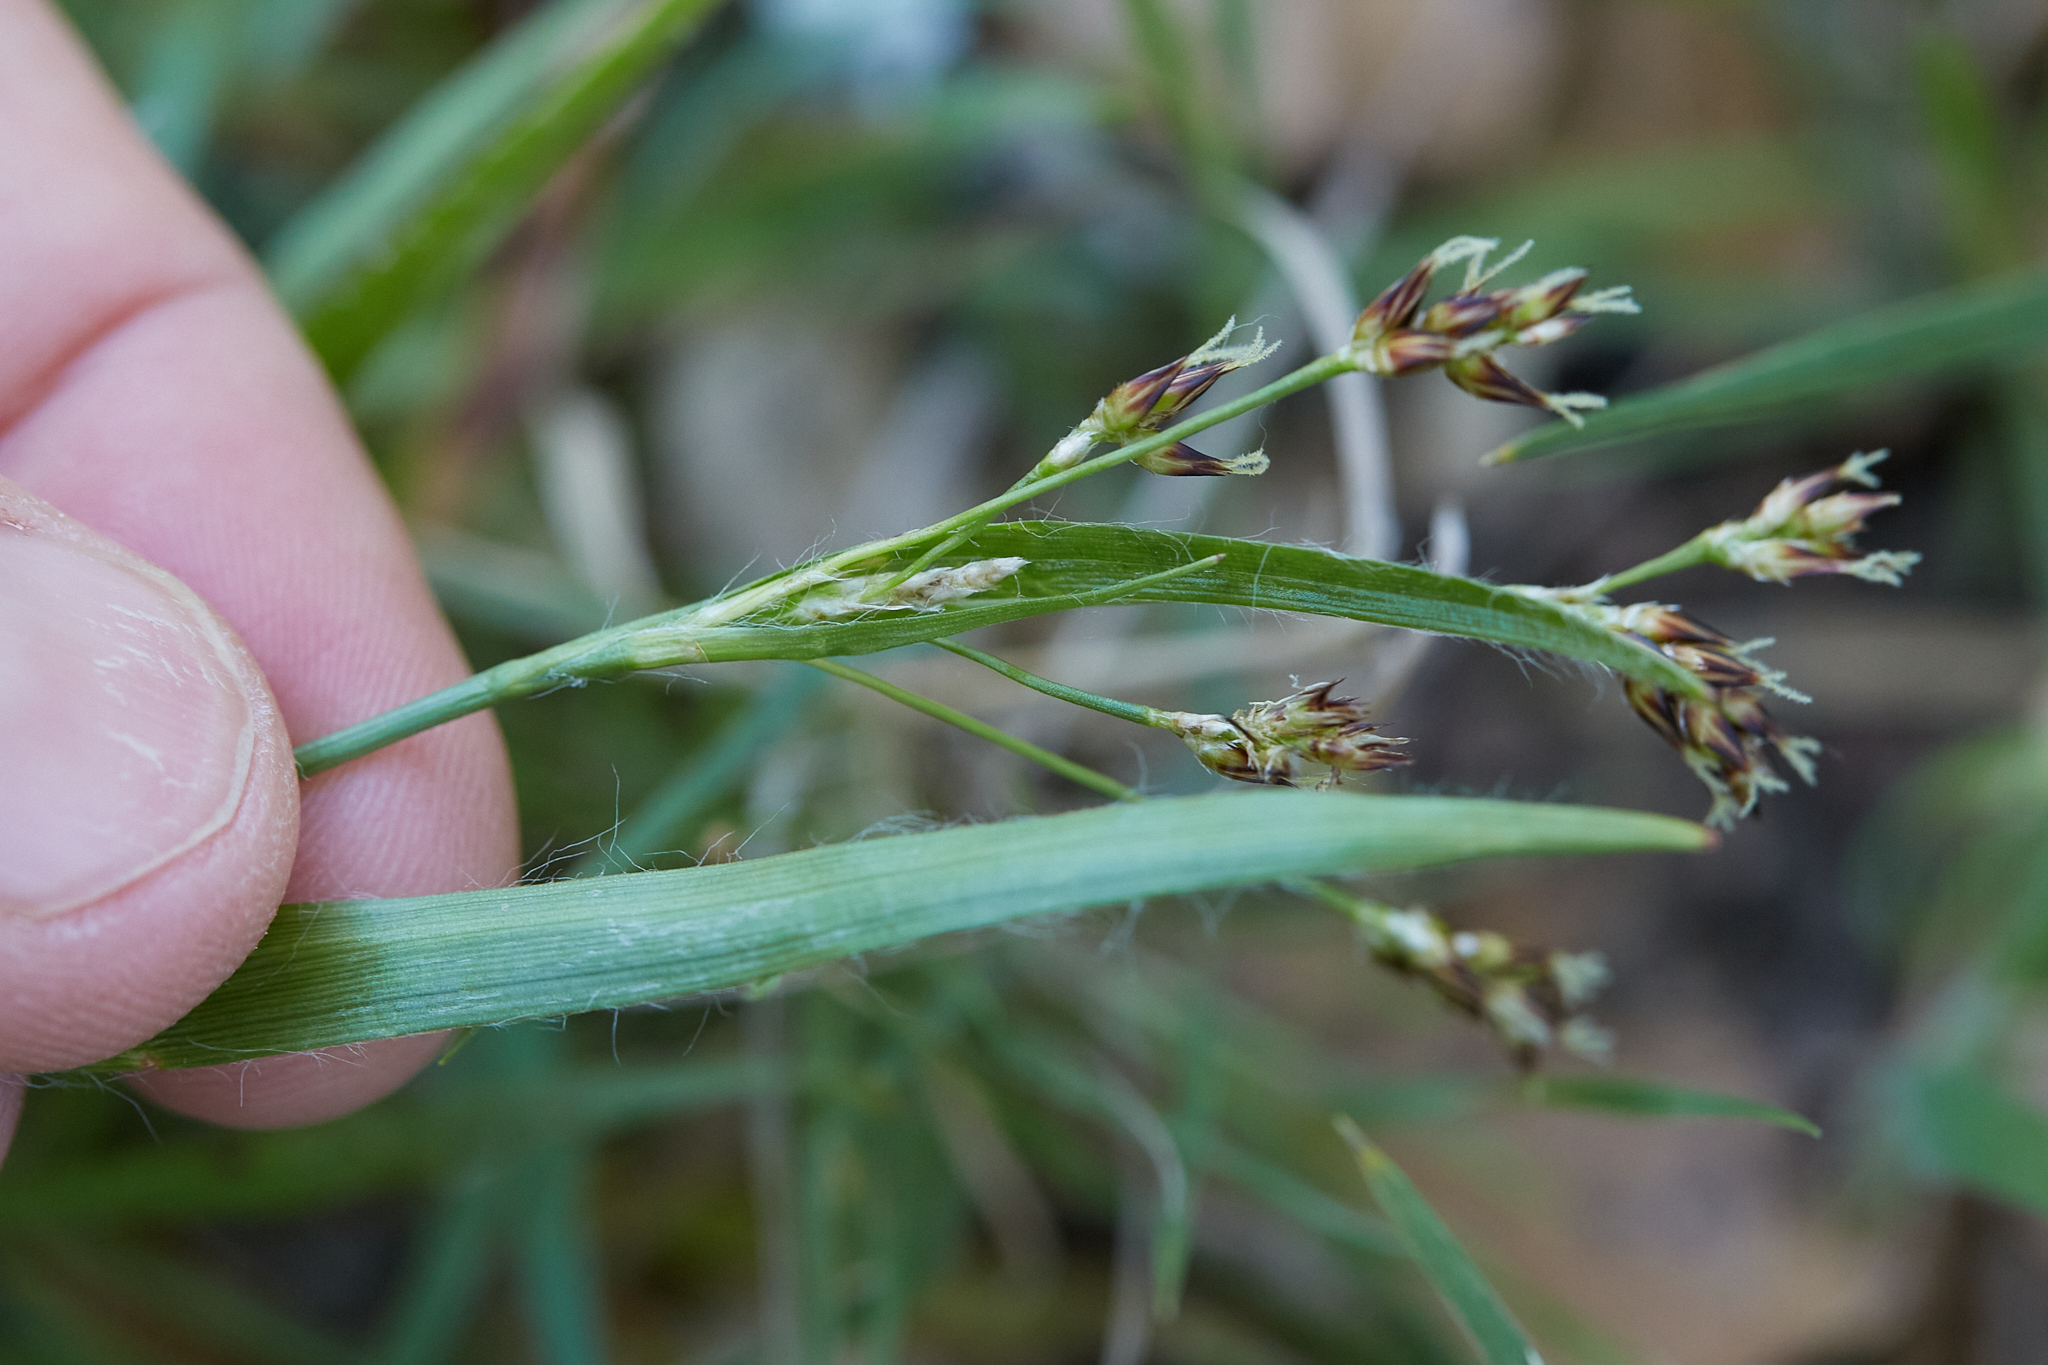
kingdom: Plantae
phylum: Tracheophyta
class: Liliopsida
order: Poales
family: Juncaceae
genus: Luzula
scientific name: Luzula comosa
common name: Pacific woodrush
